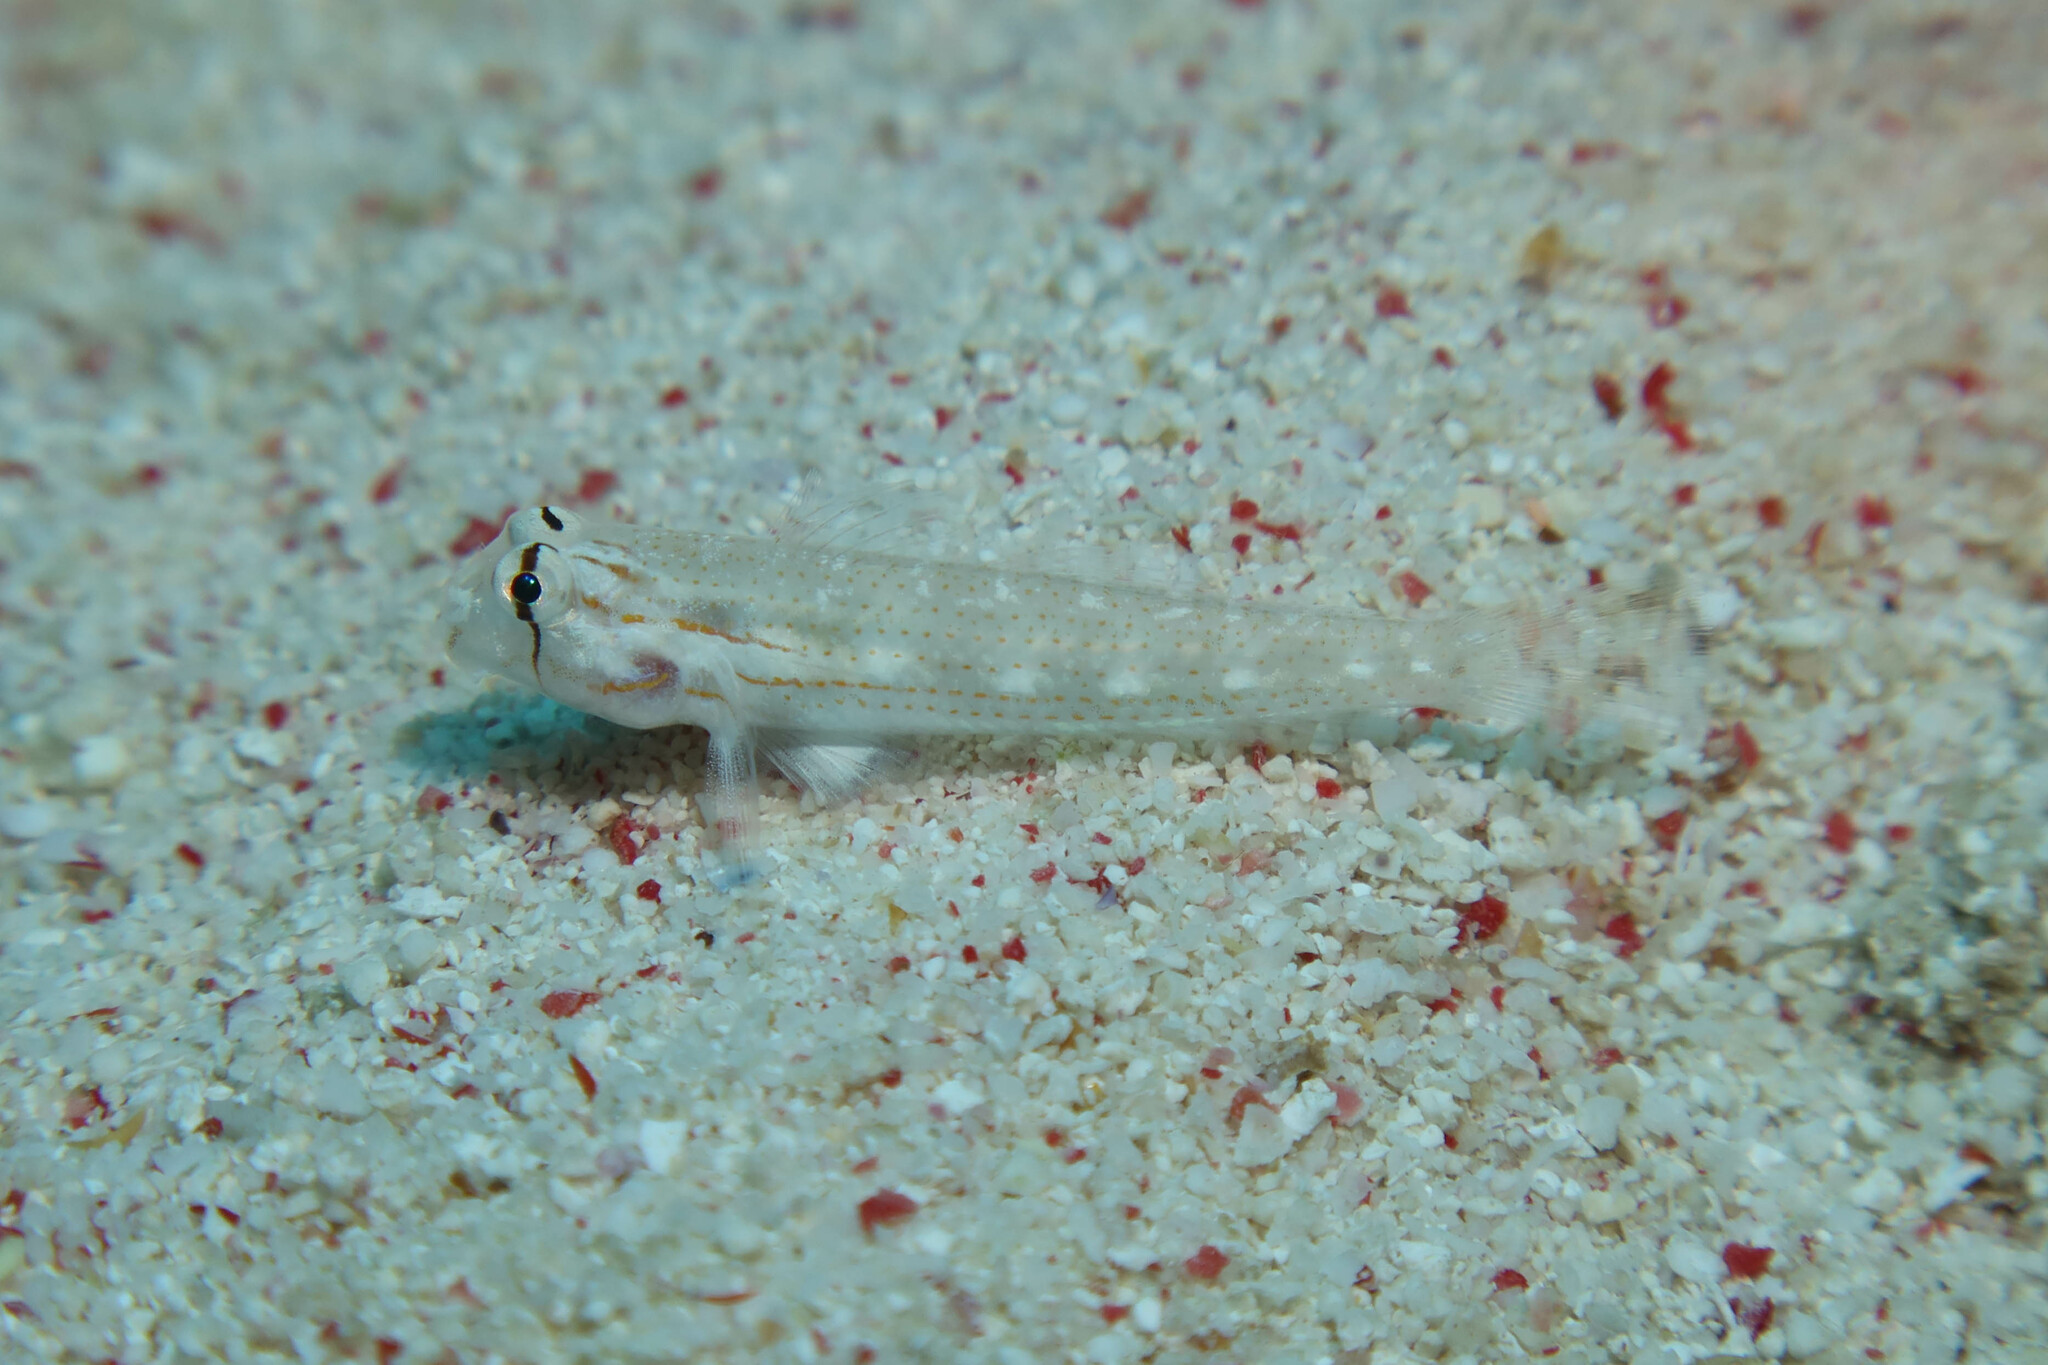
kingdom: Animalia
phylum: Chordata
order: Perciformes
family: Gobiidae
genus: Gnatholepis
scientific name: Gnatholepis caudimaculata
